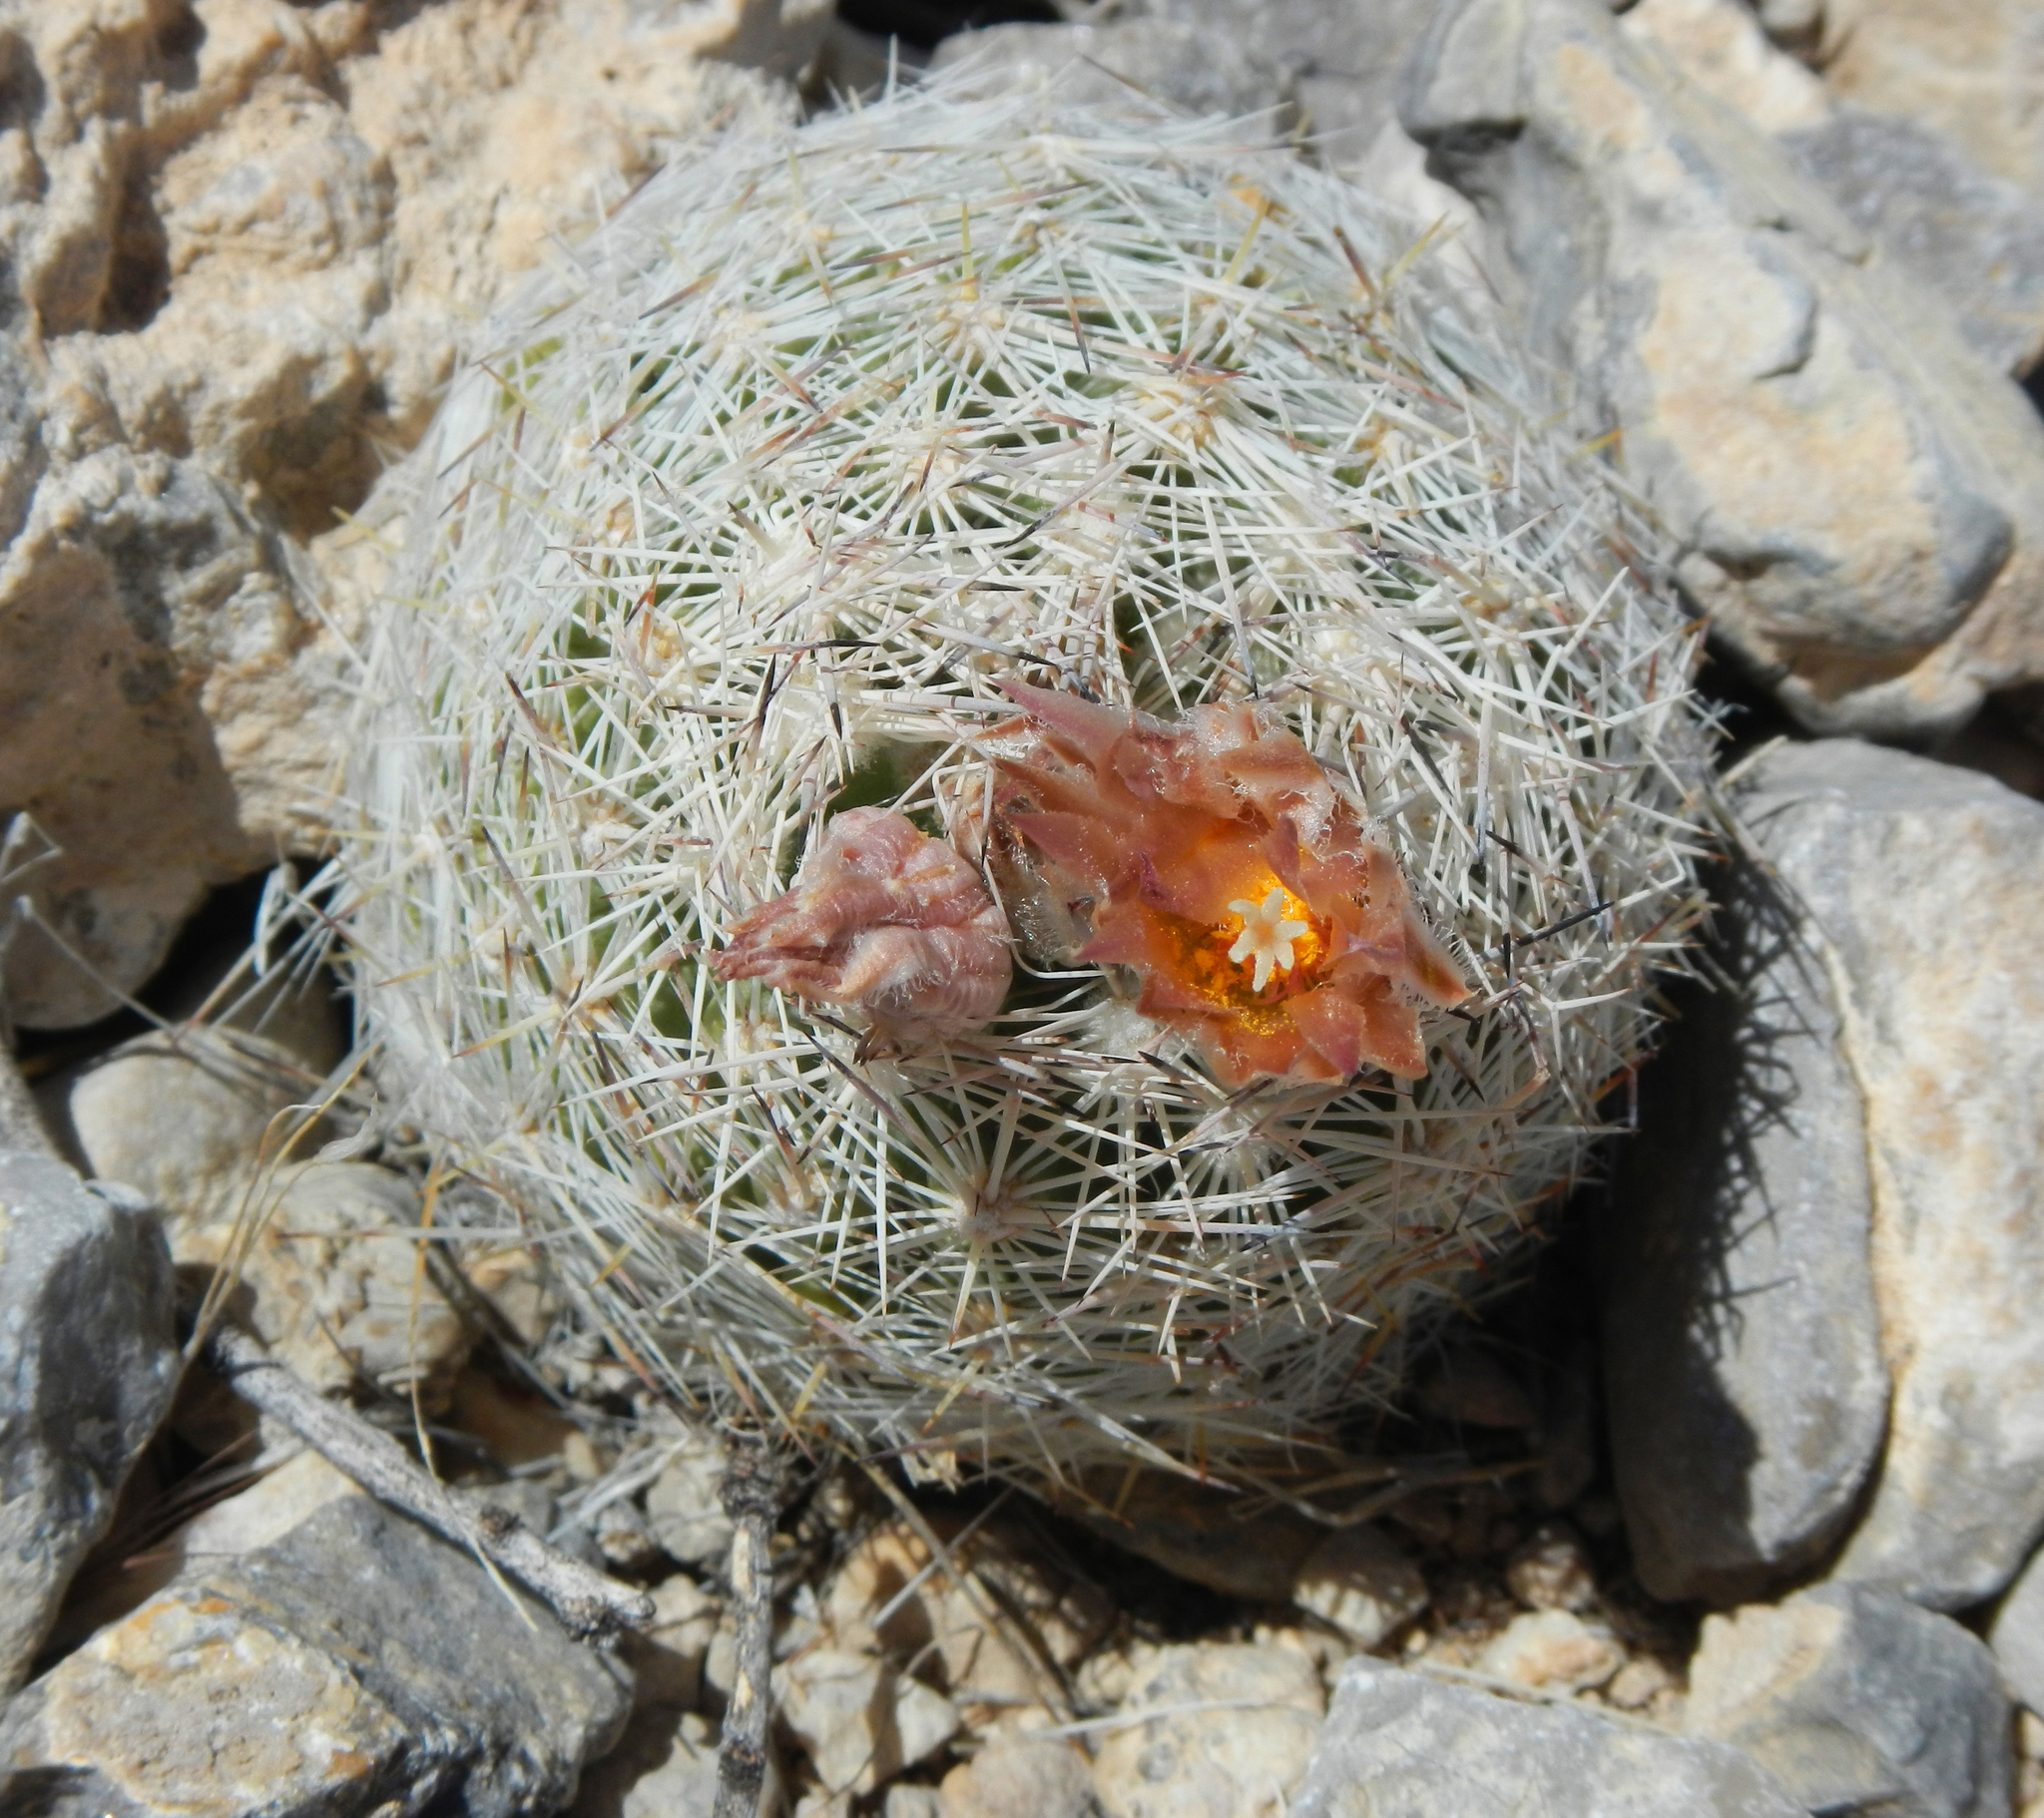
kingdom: Plantae
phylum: Tracheophyta
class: Magnoliopsida
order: Caryophyllales
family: Cactaceae
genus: Pelecyphora
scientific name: Pelecyphora dasyacantha
